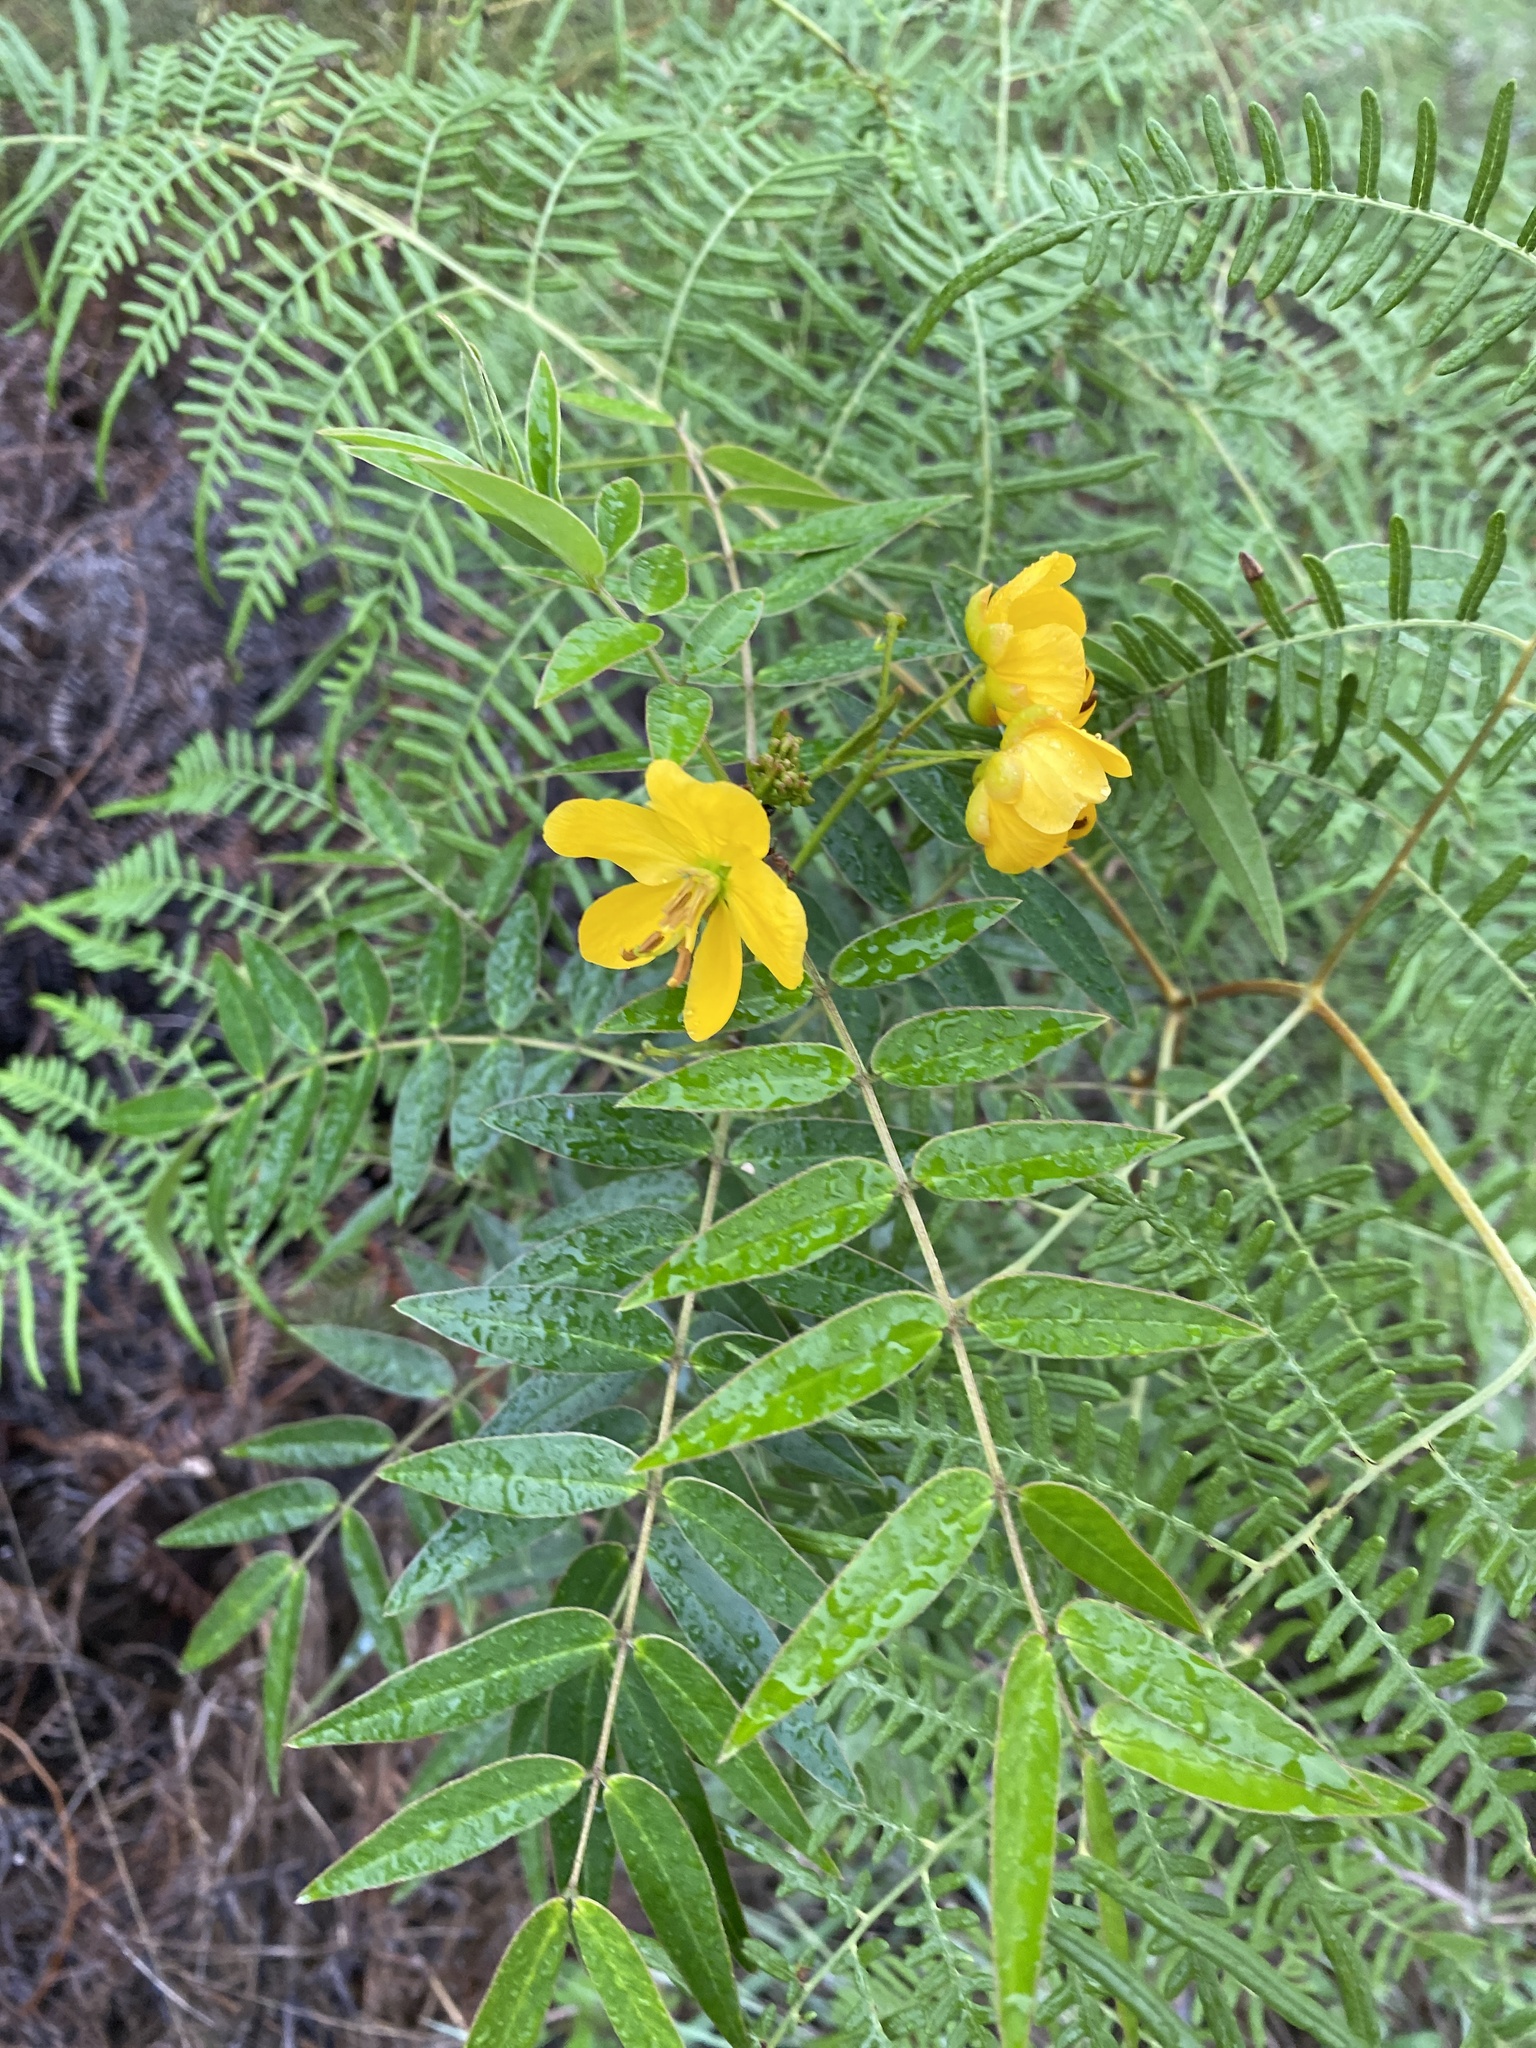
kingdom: Plantae
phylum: Tracheophyta
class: Magnoliopsida
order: Fabales
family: Fabaceae
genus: Senna
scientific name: Senna ligustrina
